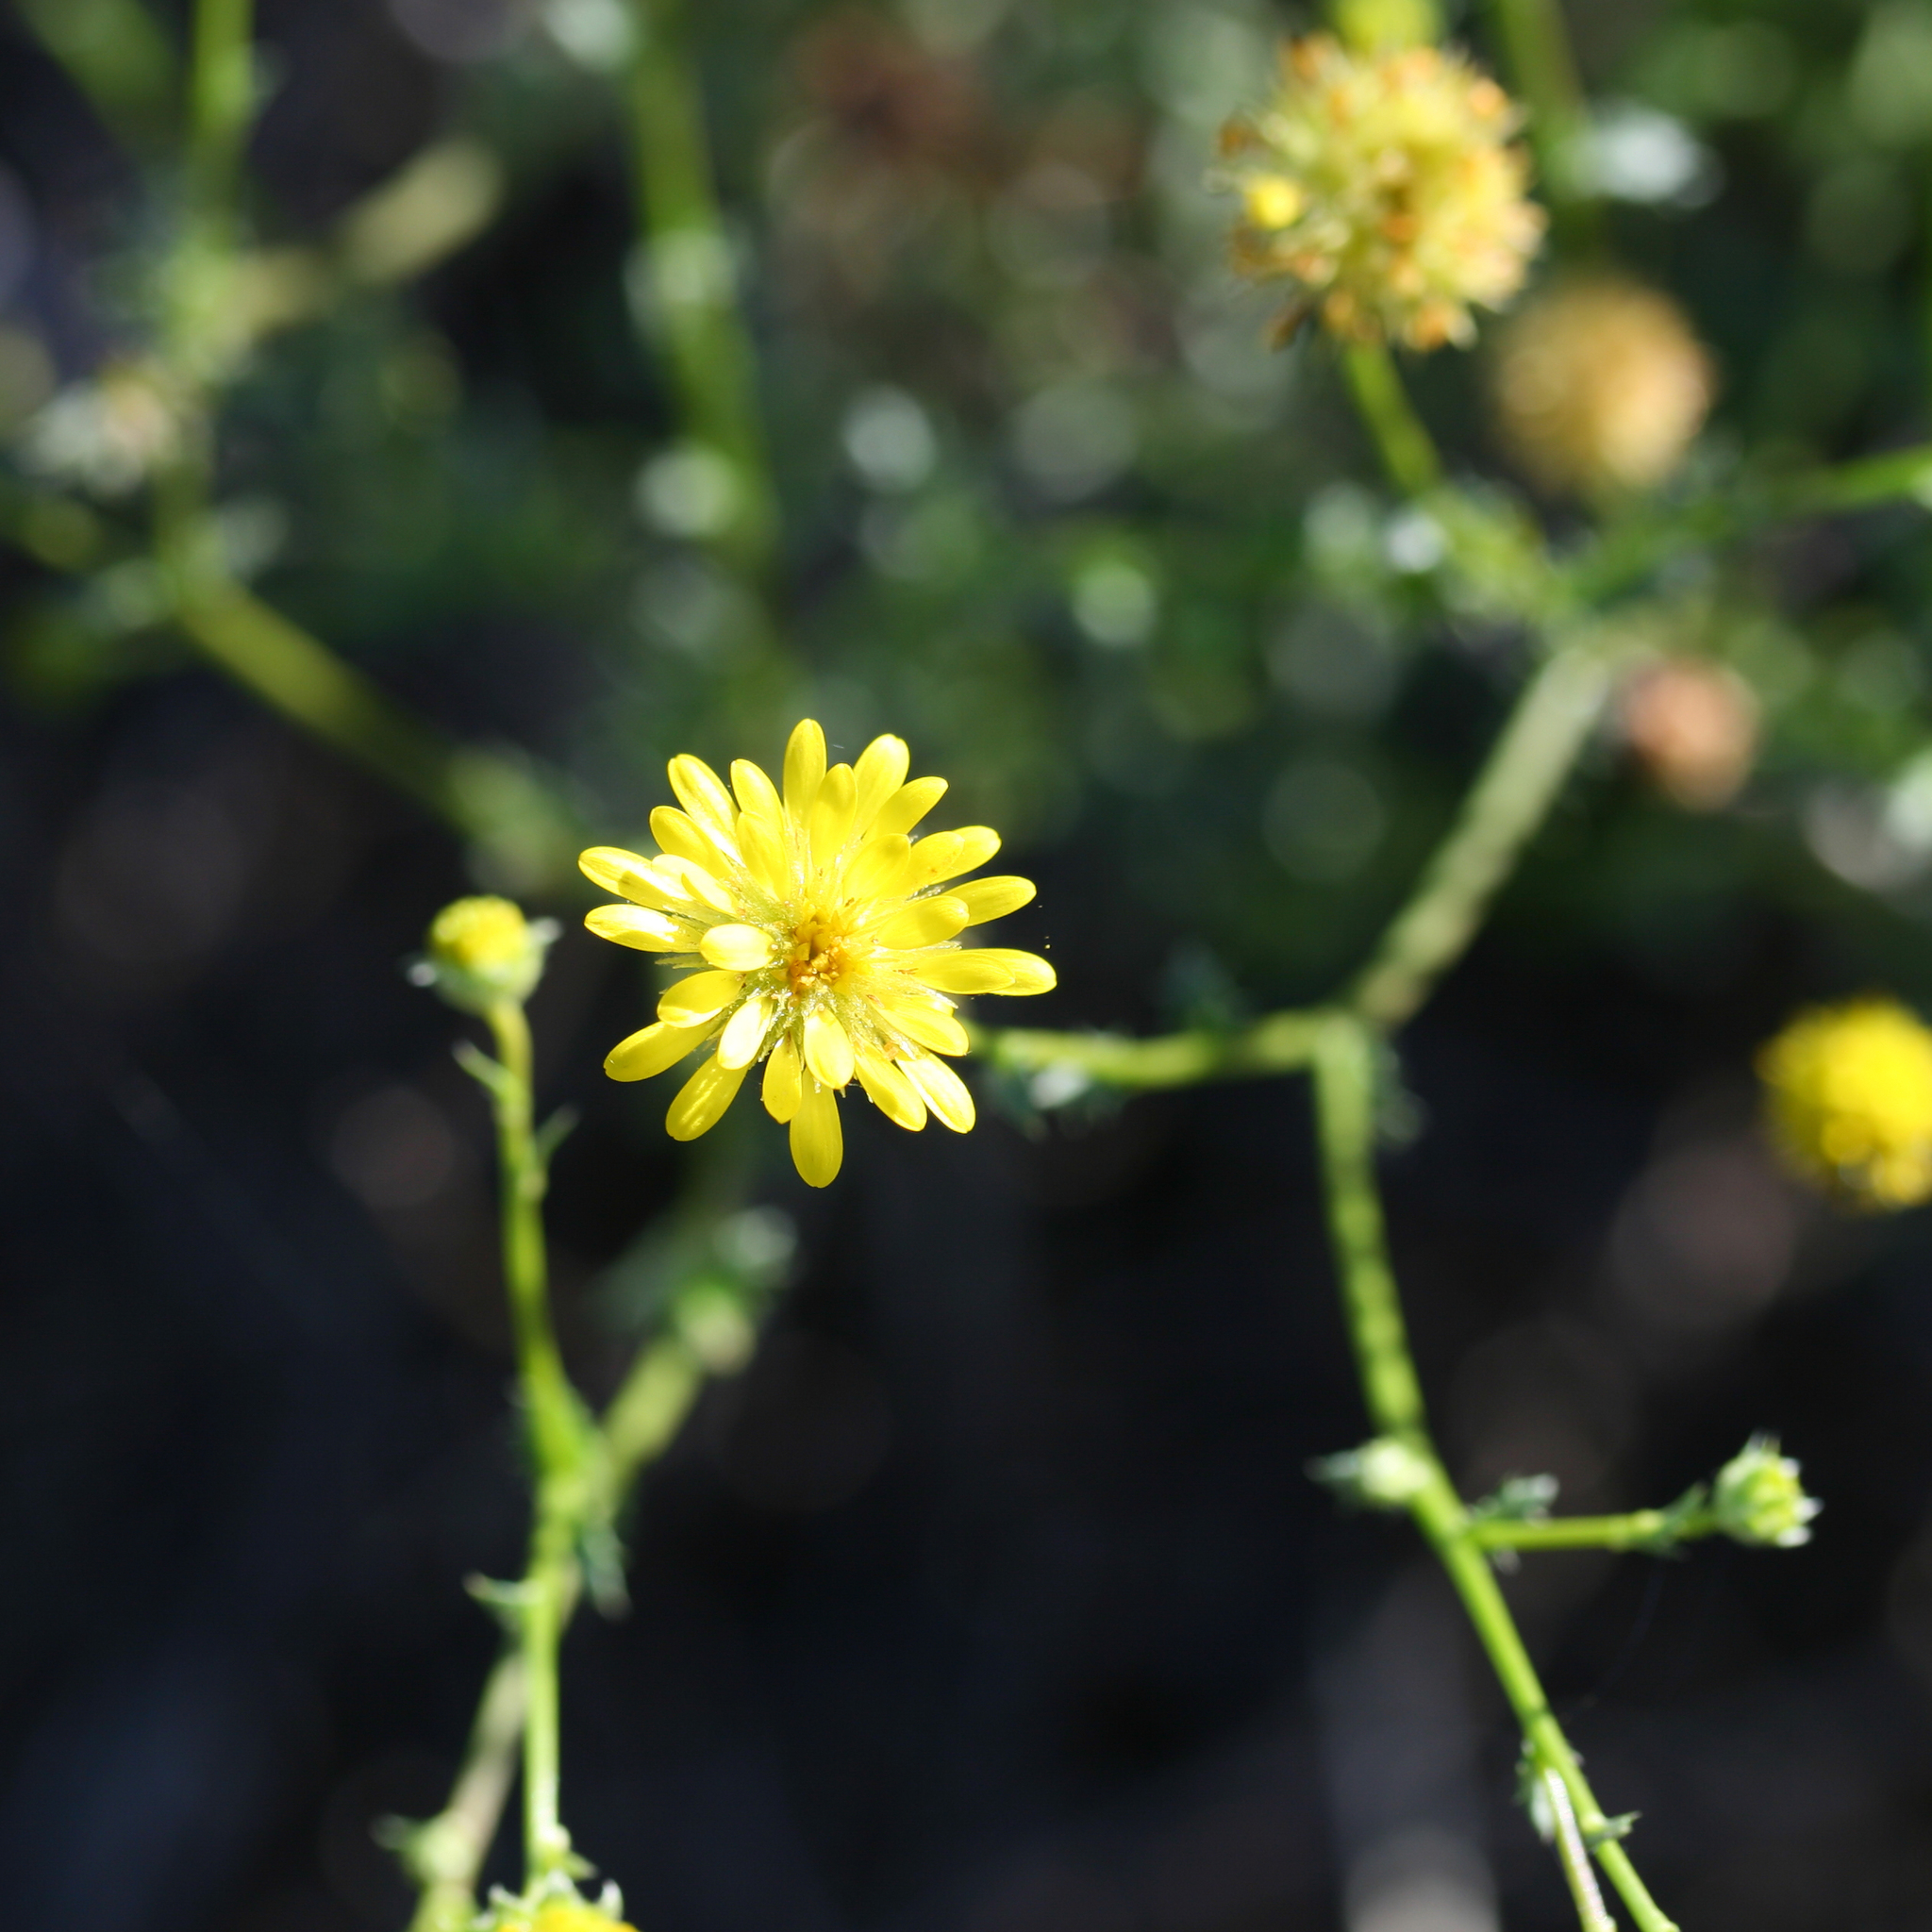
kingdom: Plantae
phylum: Tracheophyta
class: Magnoliopsida
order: Asterales
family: Asteraceae
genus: Calotis
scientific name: Calotis erinacea
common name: Tangled bur daisy
